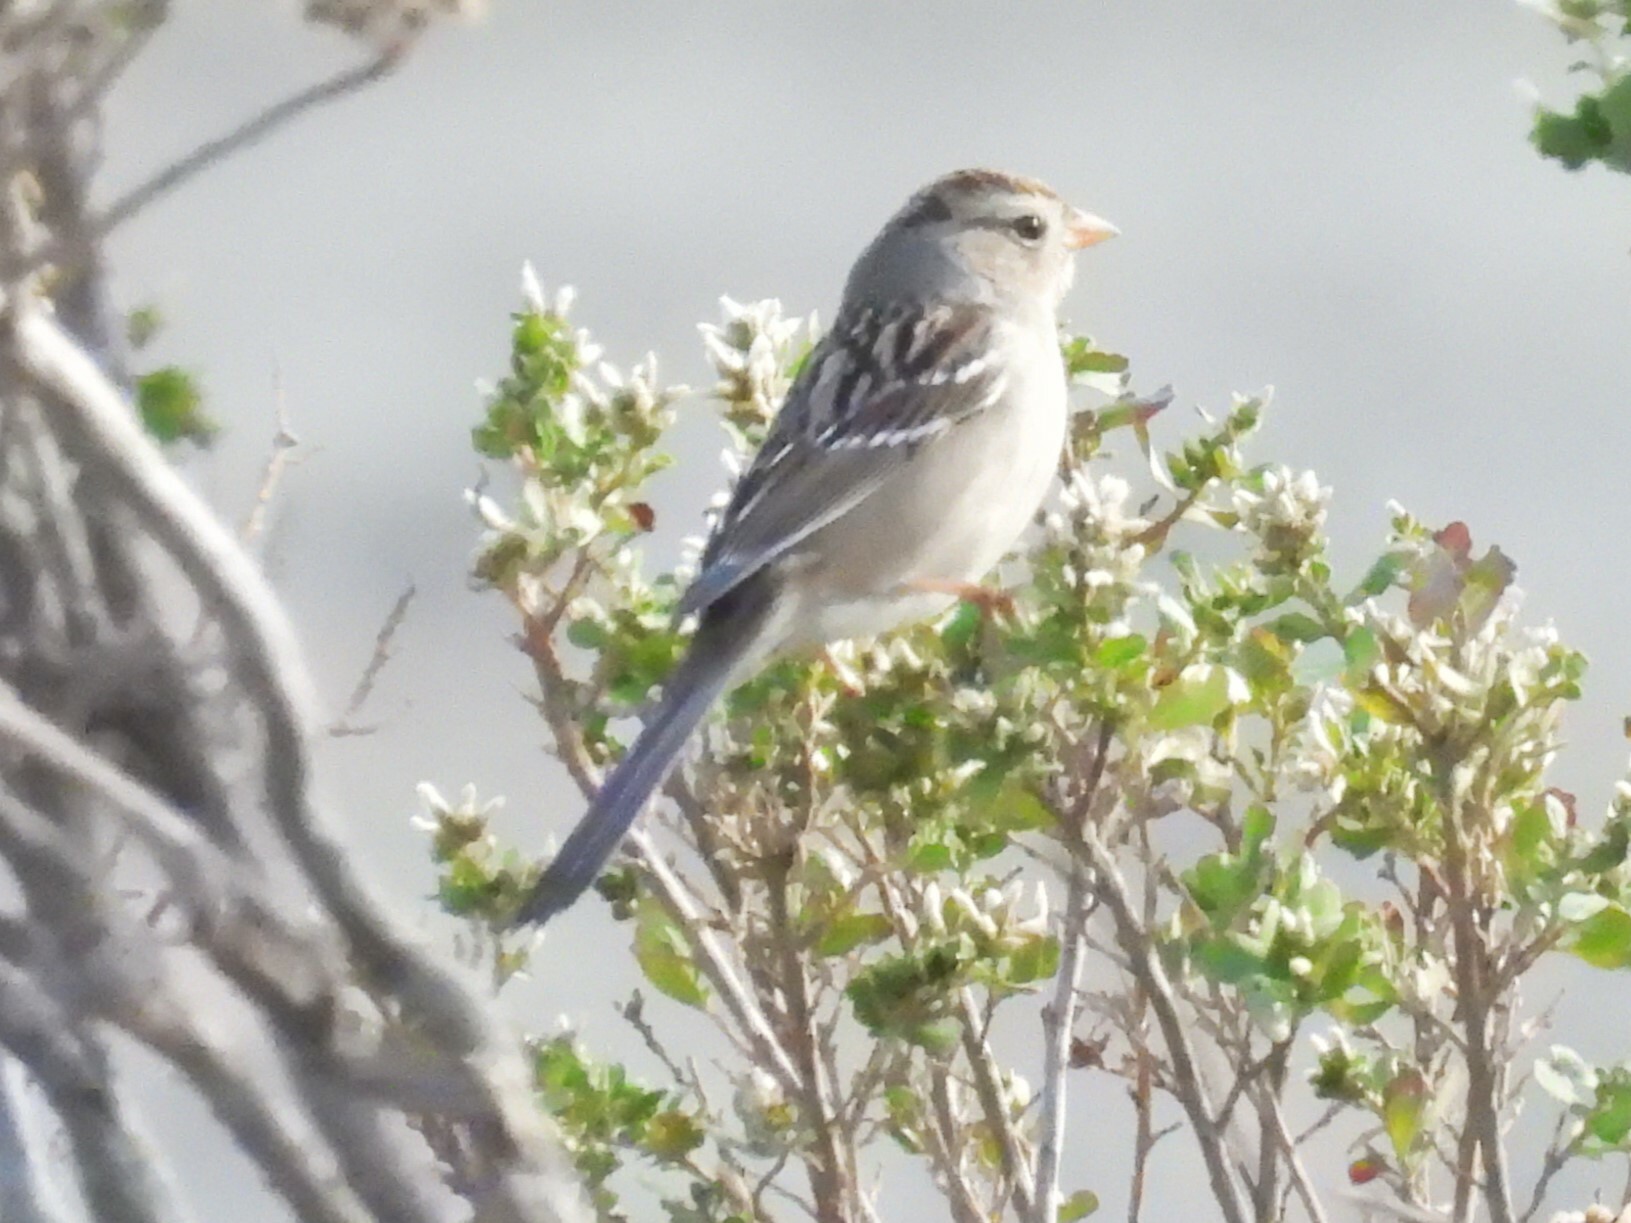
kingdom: Animalia
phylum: Chordata
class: Aves
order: Passeriformes
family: Passerellidae
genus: Zonotrichia
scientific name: Zonotrichia leucophrys
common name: White-crowned sparrow
